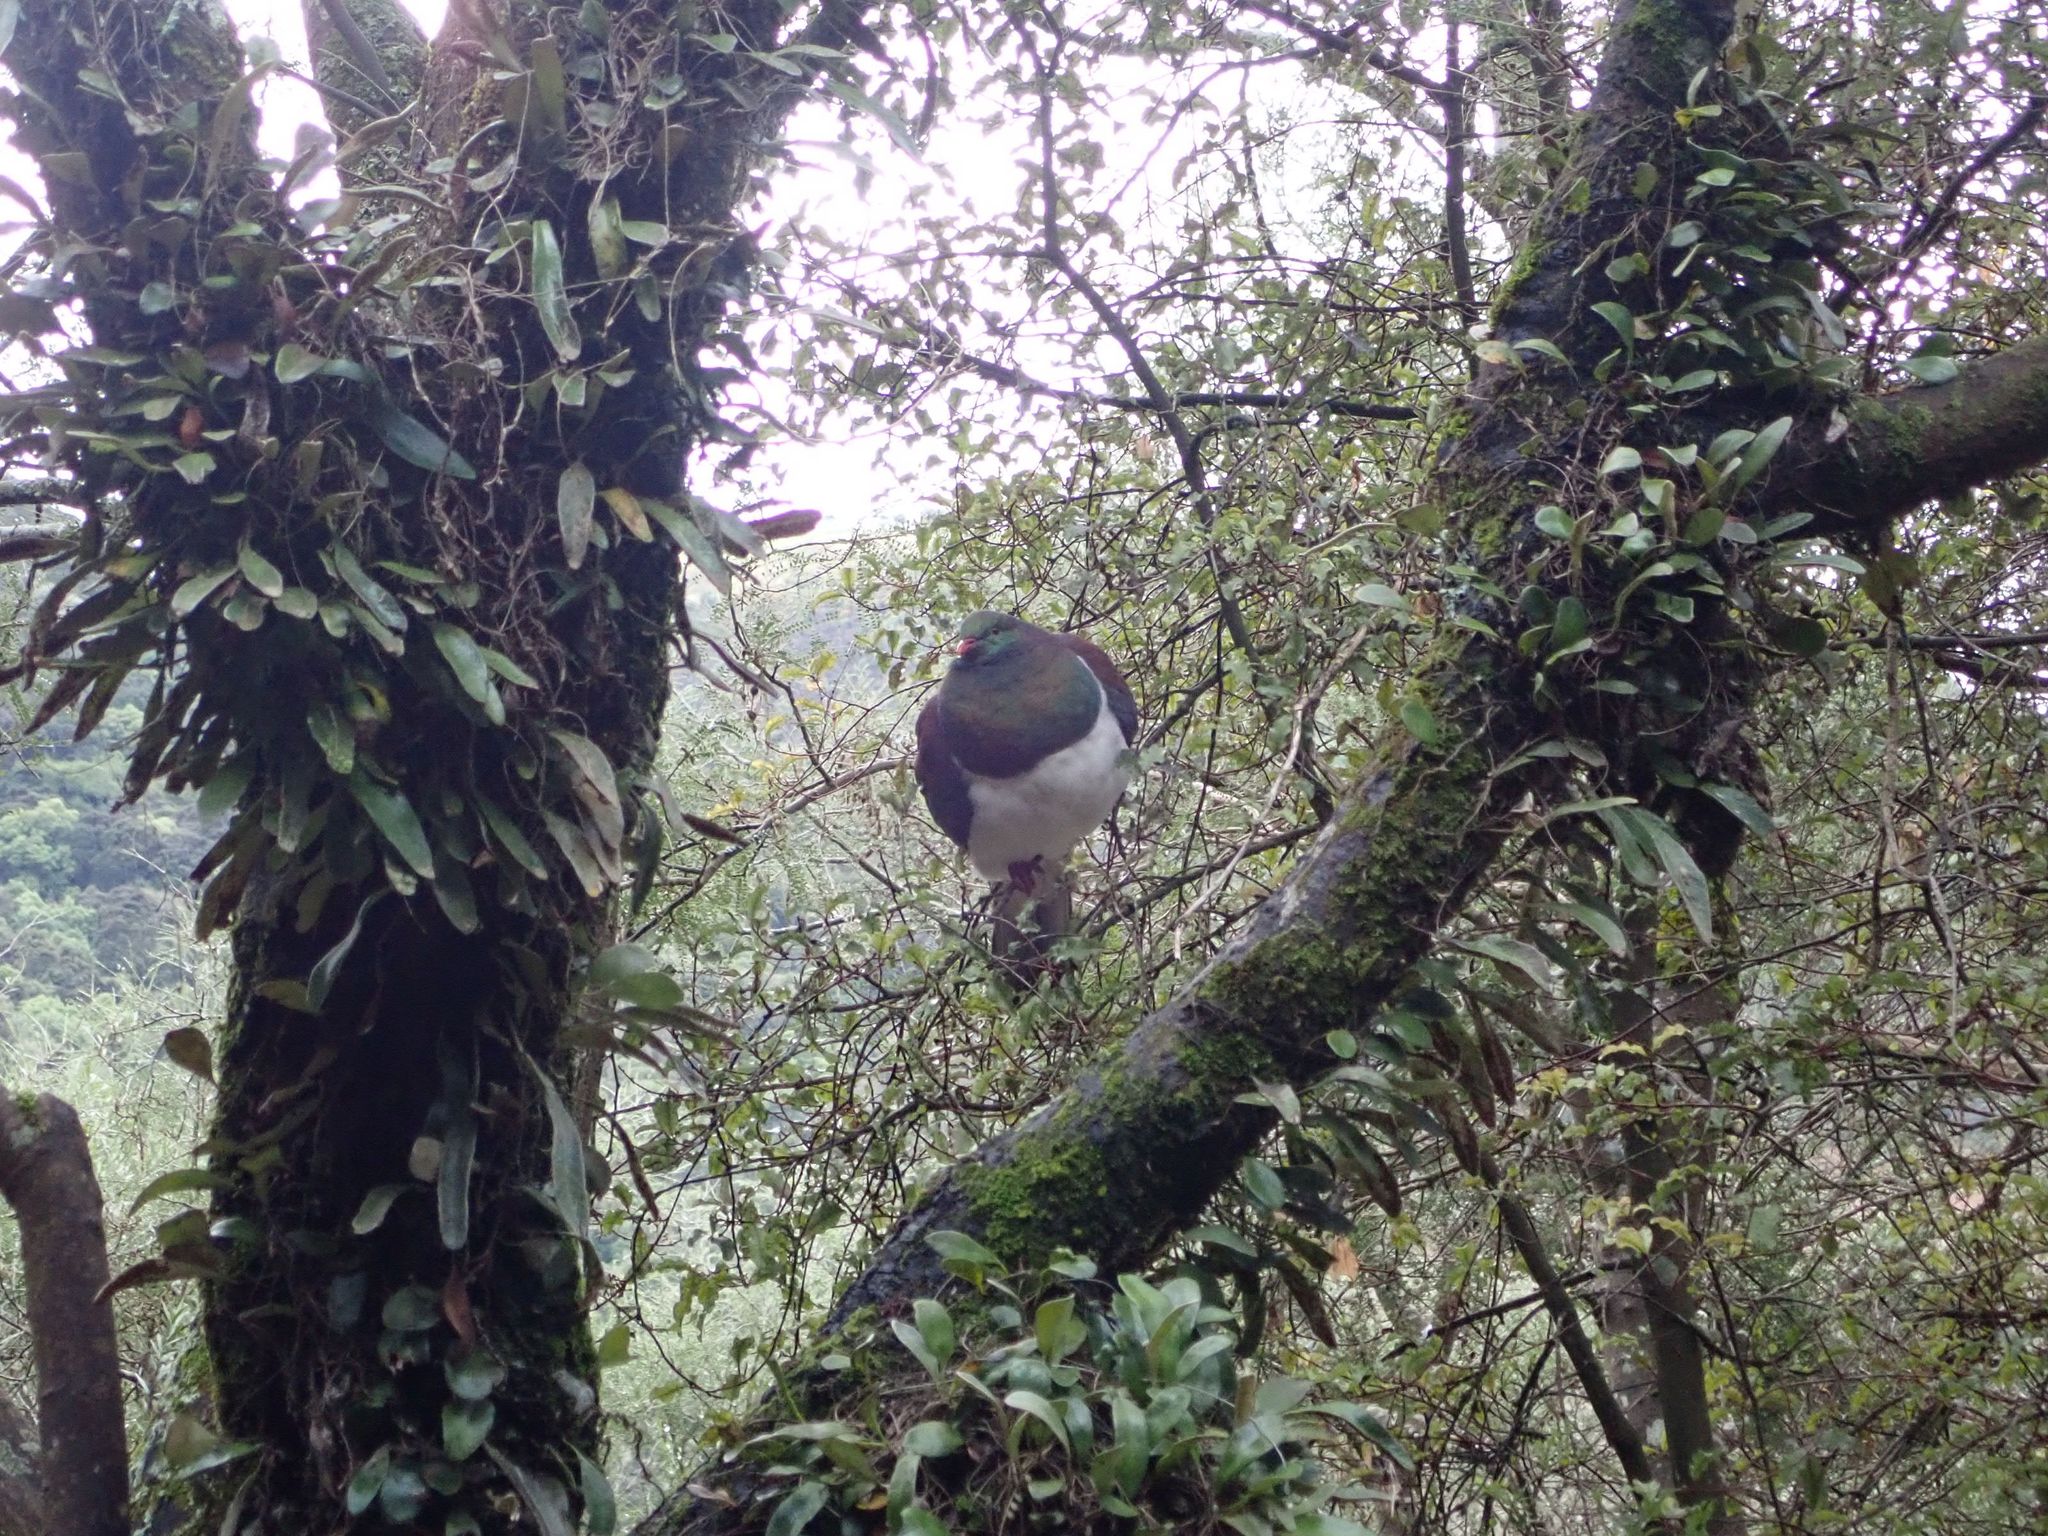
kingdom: Animalia
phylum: Chordata
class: Aves
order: Columbiformes
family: Columbidae
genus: Hemiphaga
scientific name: Hemiphaga novaeseelandiae
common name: New zealand pigeon
